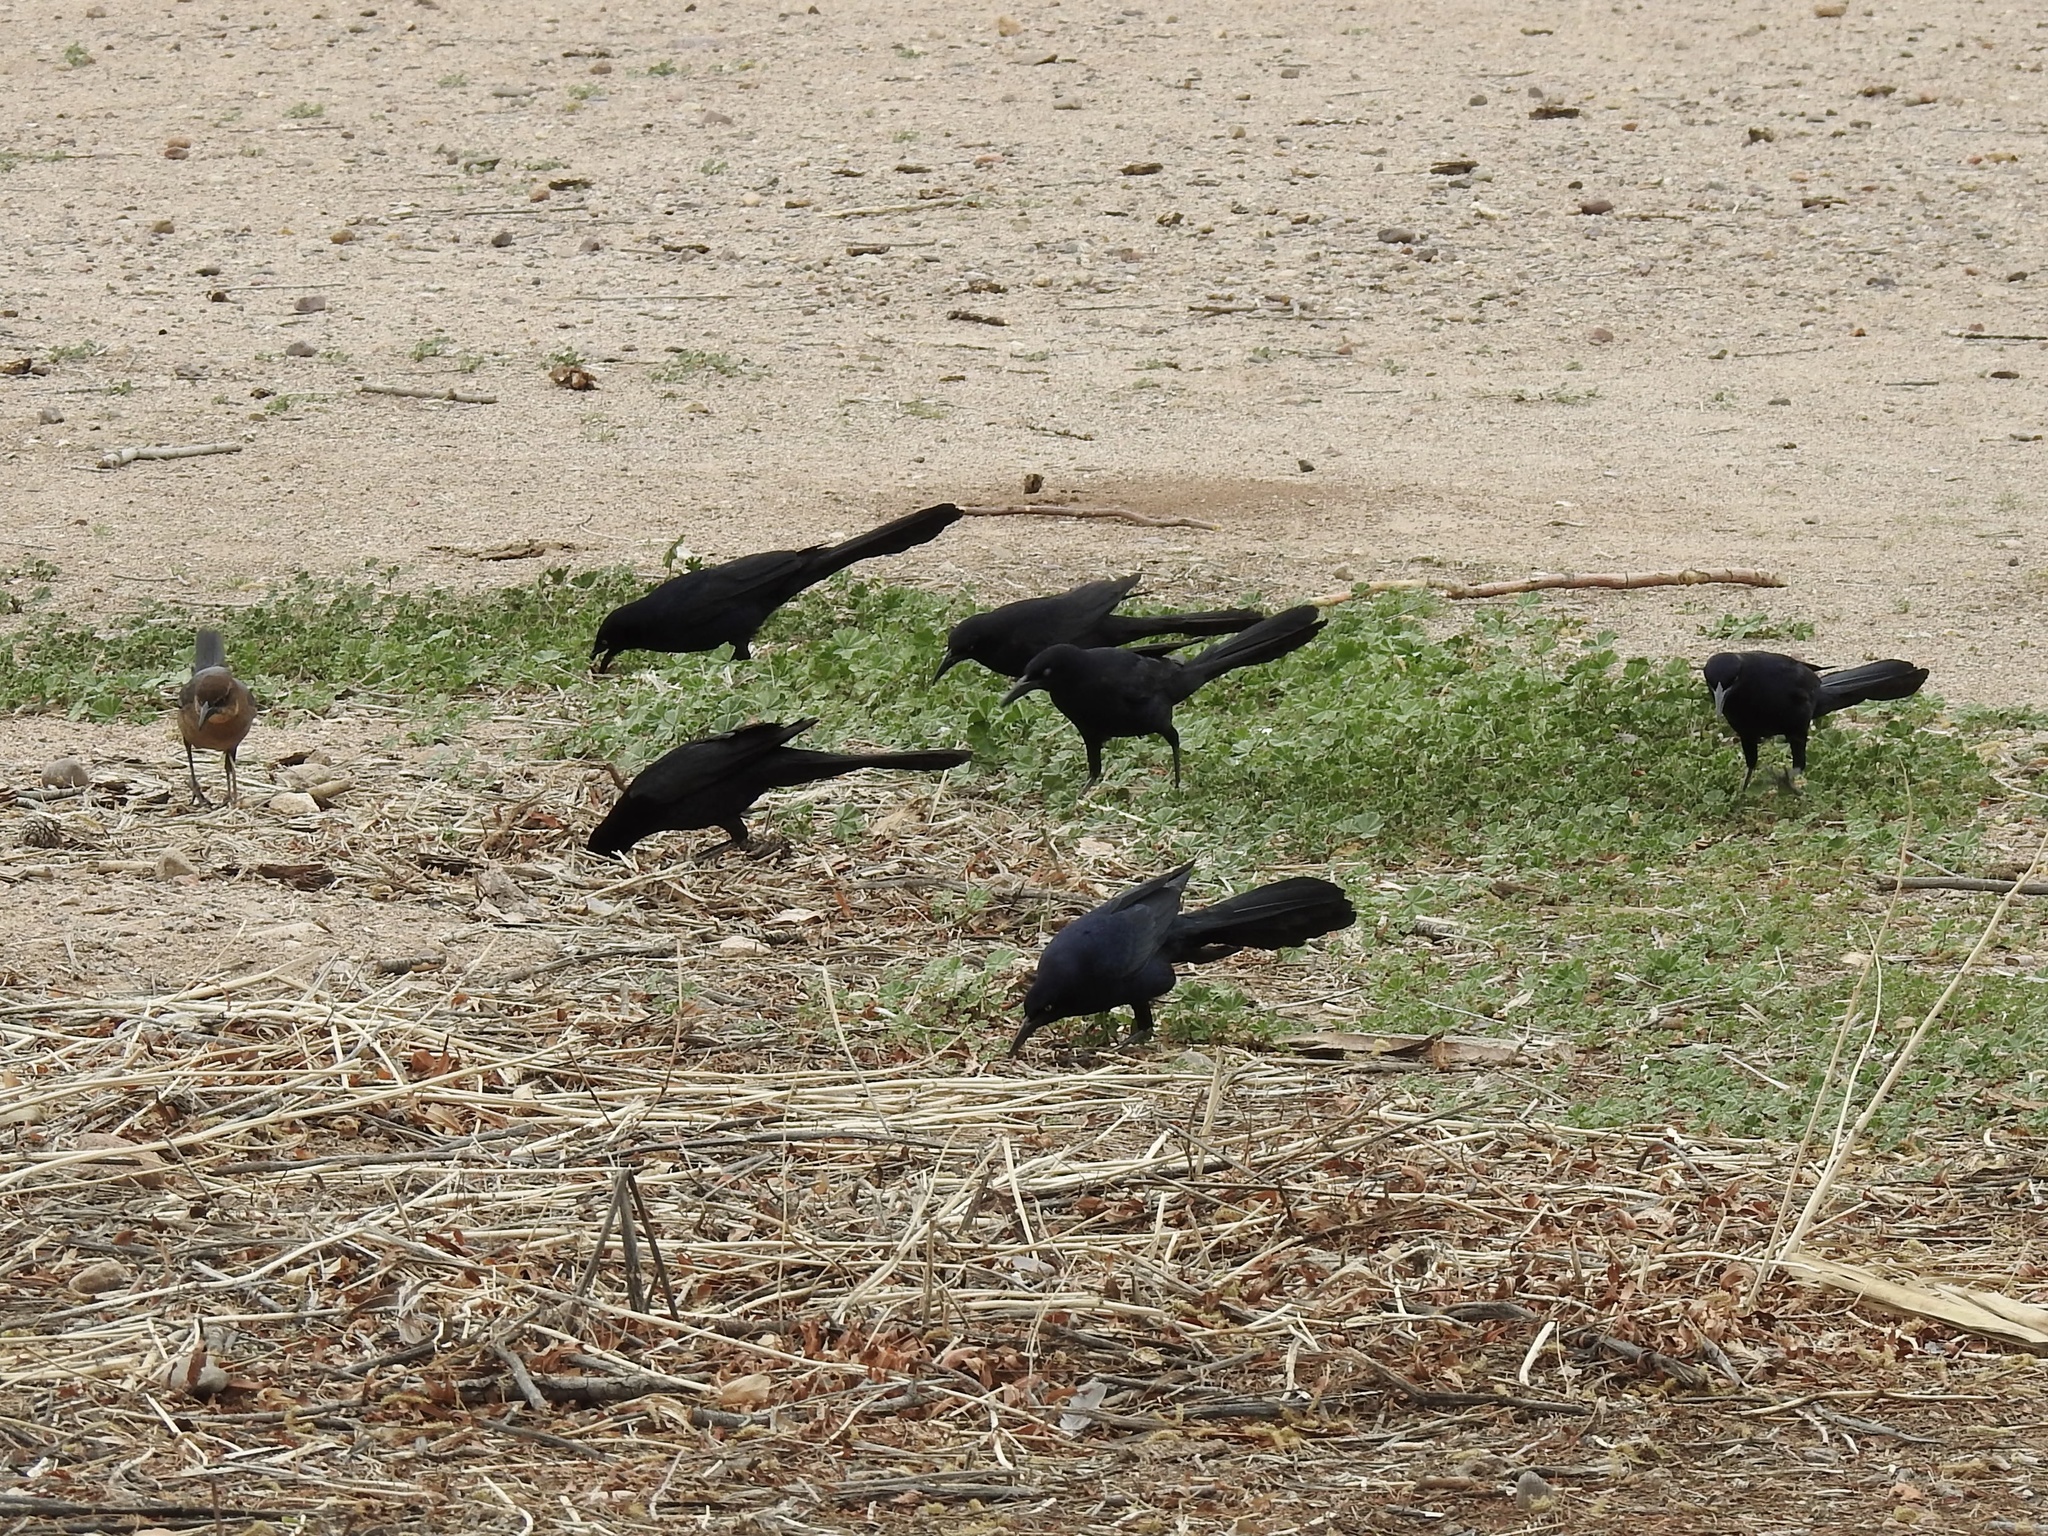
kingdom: Animalia
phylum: Chordata
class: Aves
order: Passeriformes
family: Icteridae
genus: Quiscalus
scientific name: Quiscalus mexicanus
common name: Great-tailed grackle
